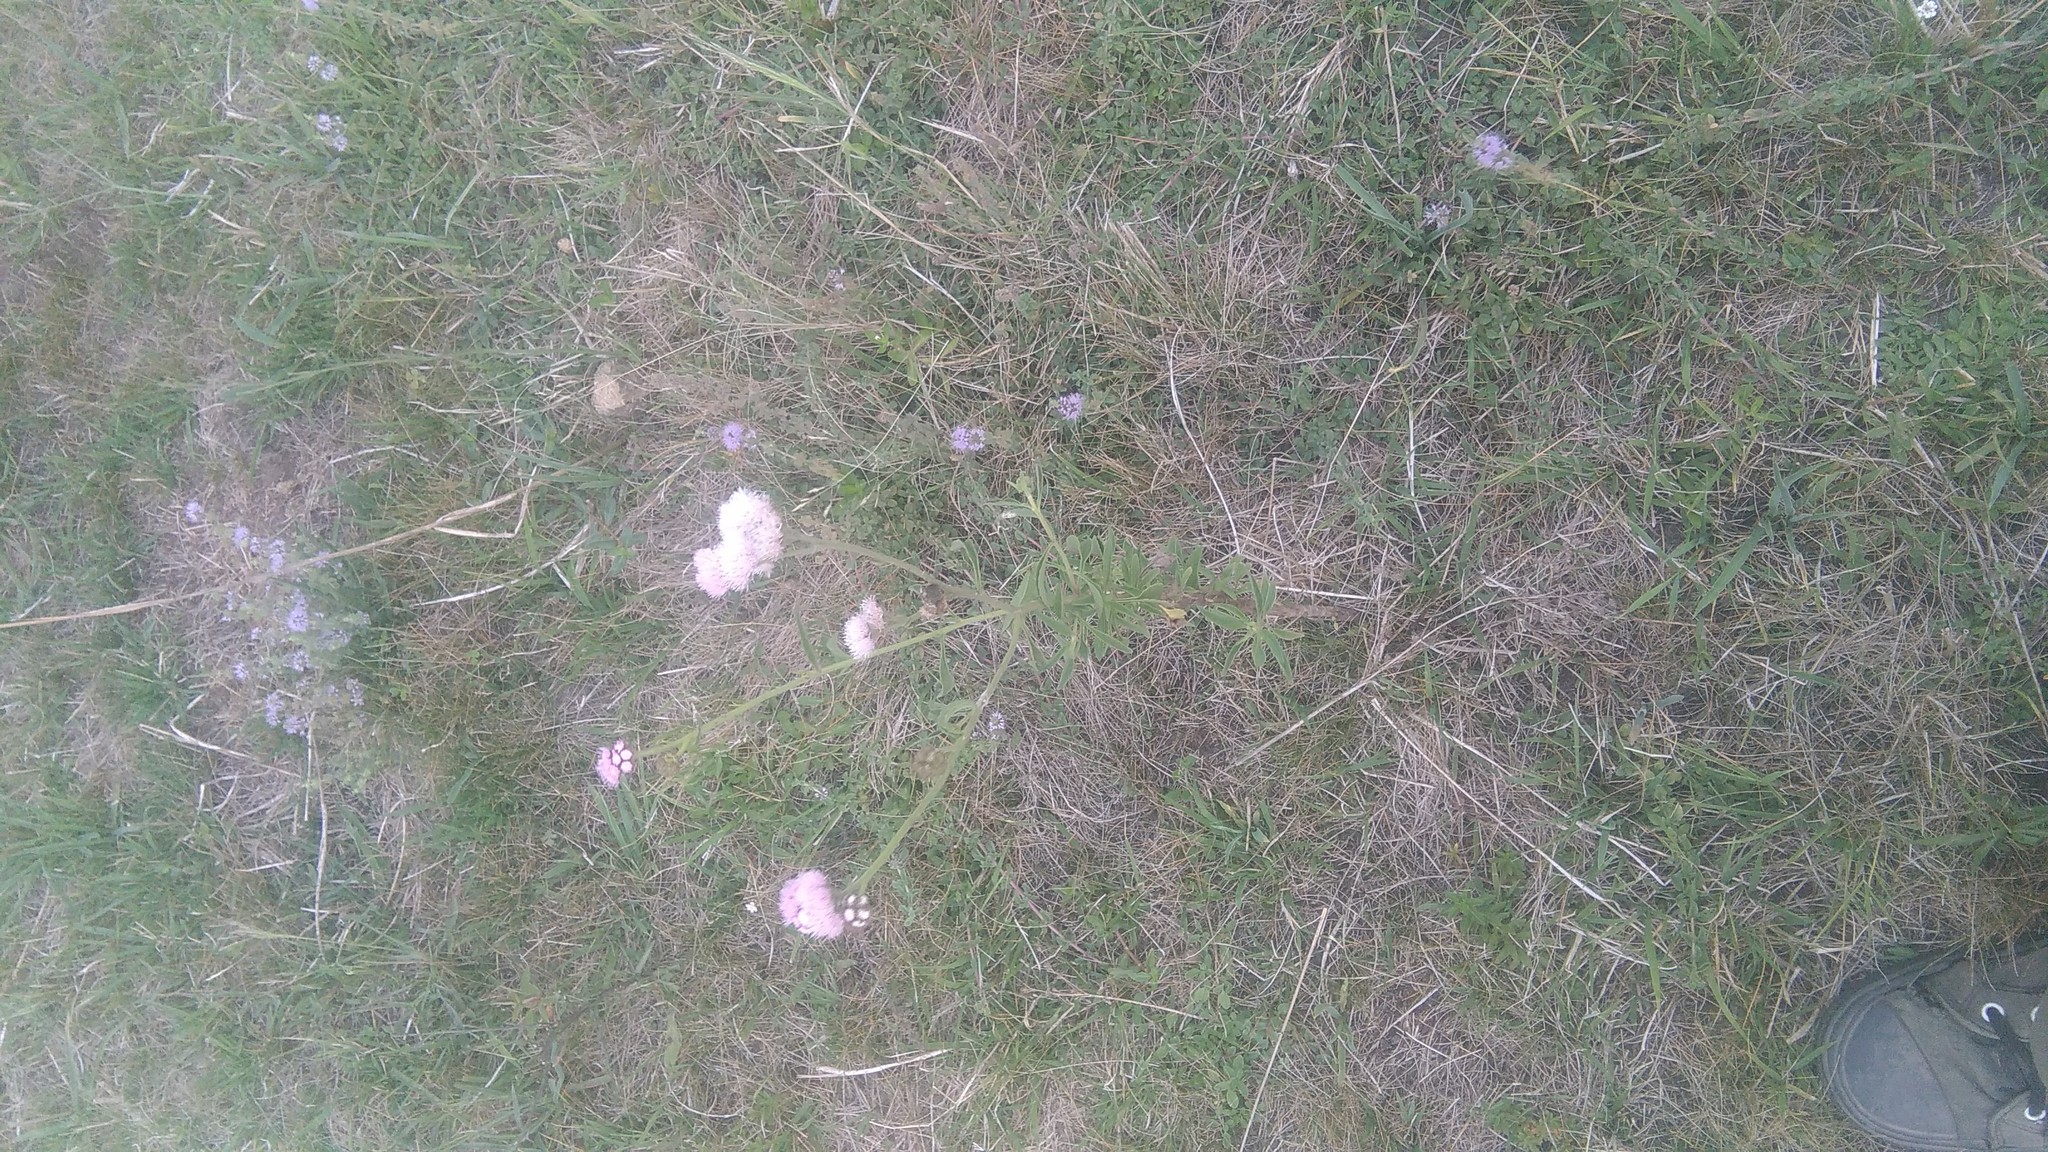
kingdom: Plantae
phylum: Tracheophyta
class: Magnoliopsida
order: Asterales
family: Asteraceae
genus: Barrosoa
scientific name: Barrosoa candolleana
